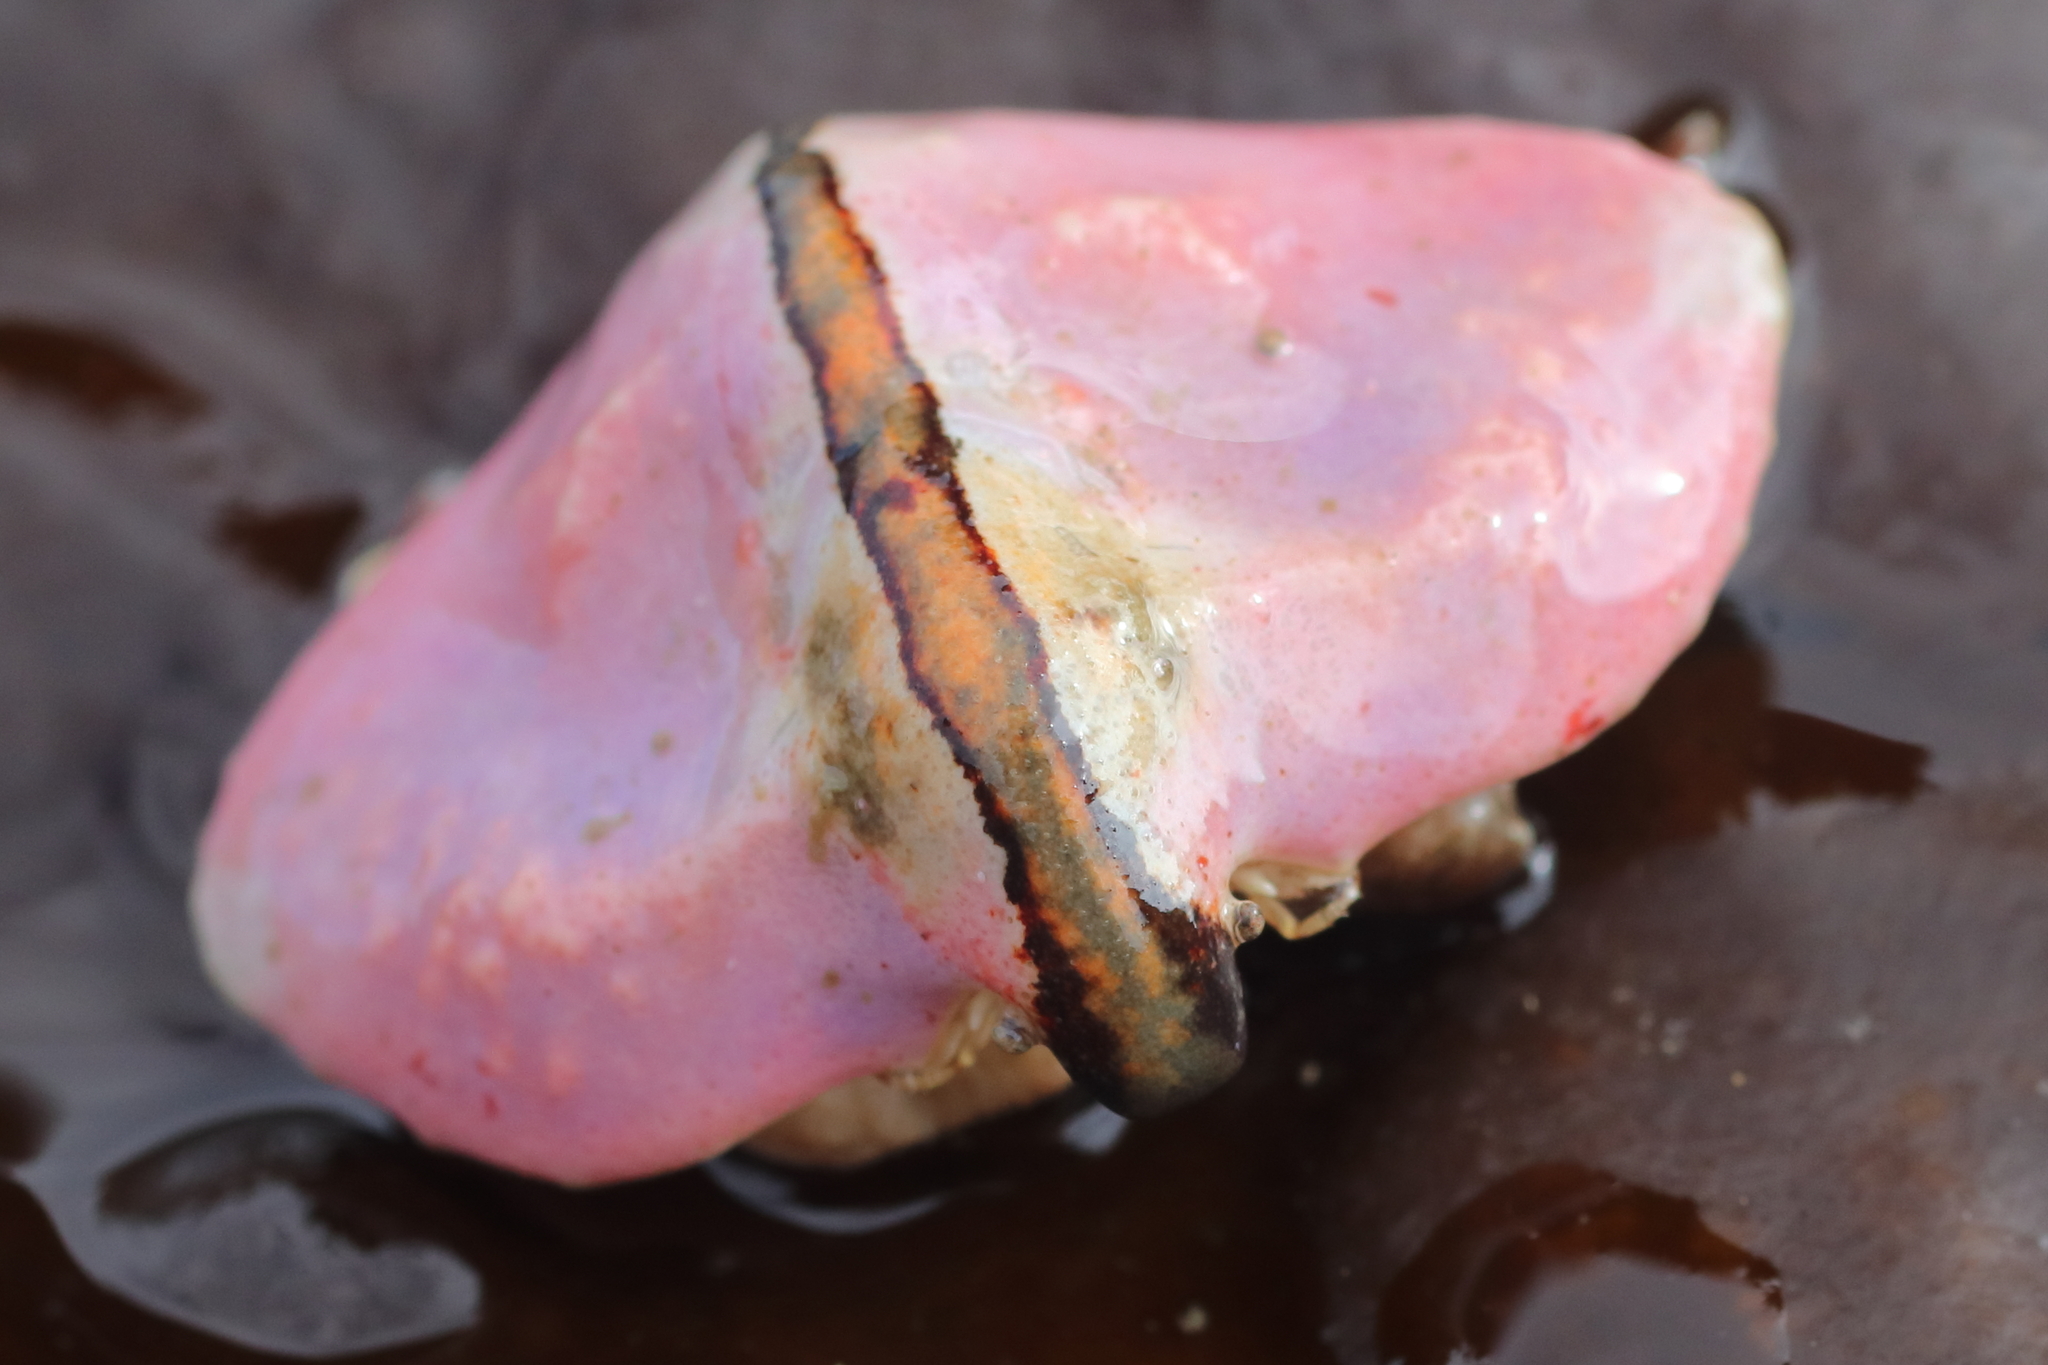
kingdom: Animalia
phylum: Arthropoda
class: Malacostraca
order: Decapoda
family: Lithodidae
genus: Cryptolithodes
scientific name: Cryptolithodes typicus
